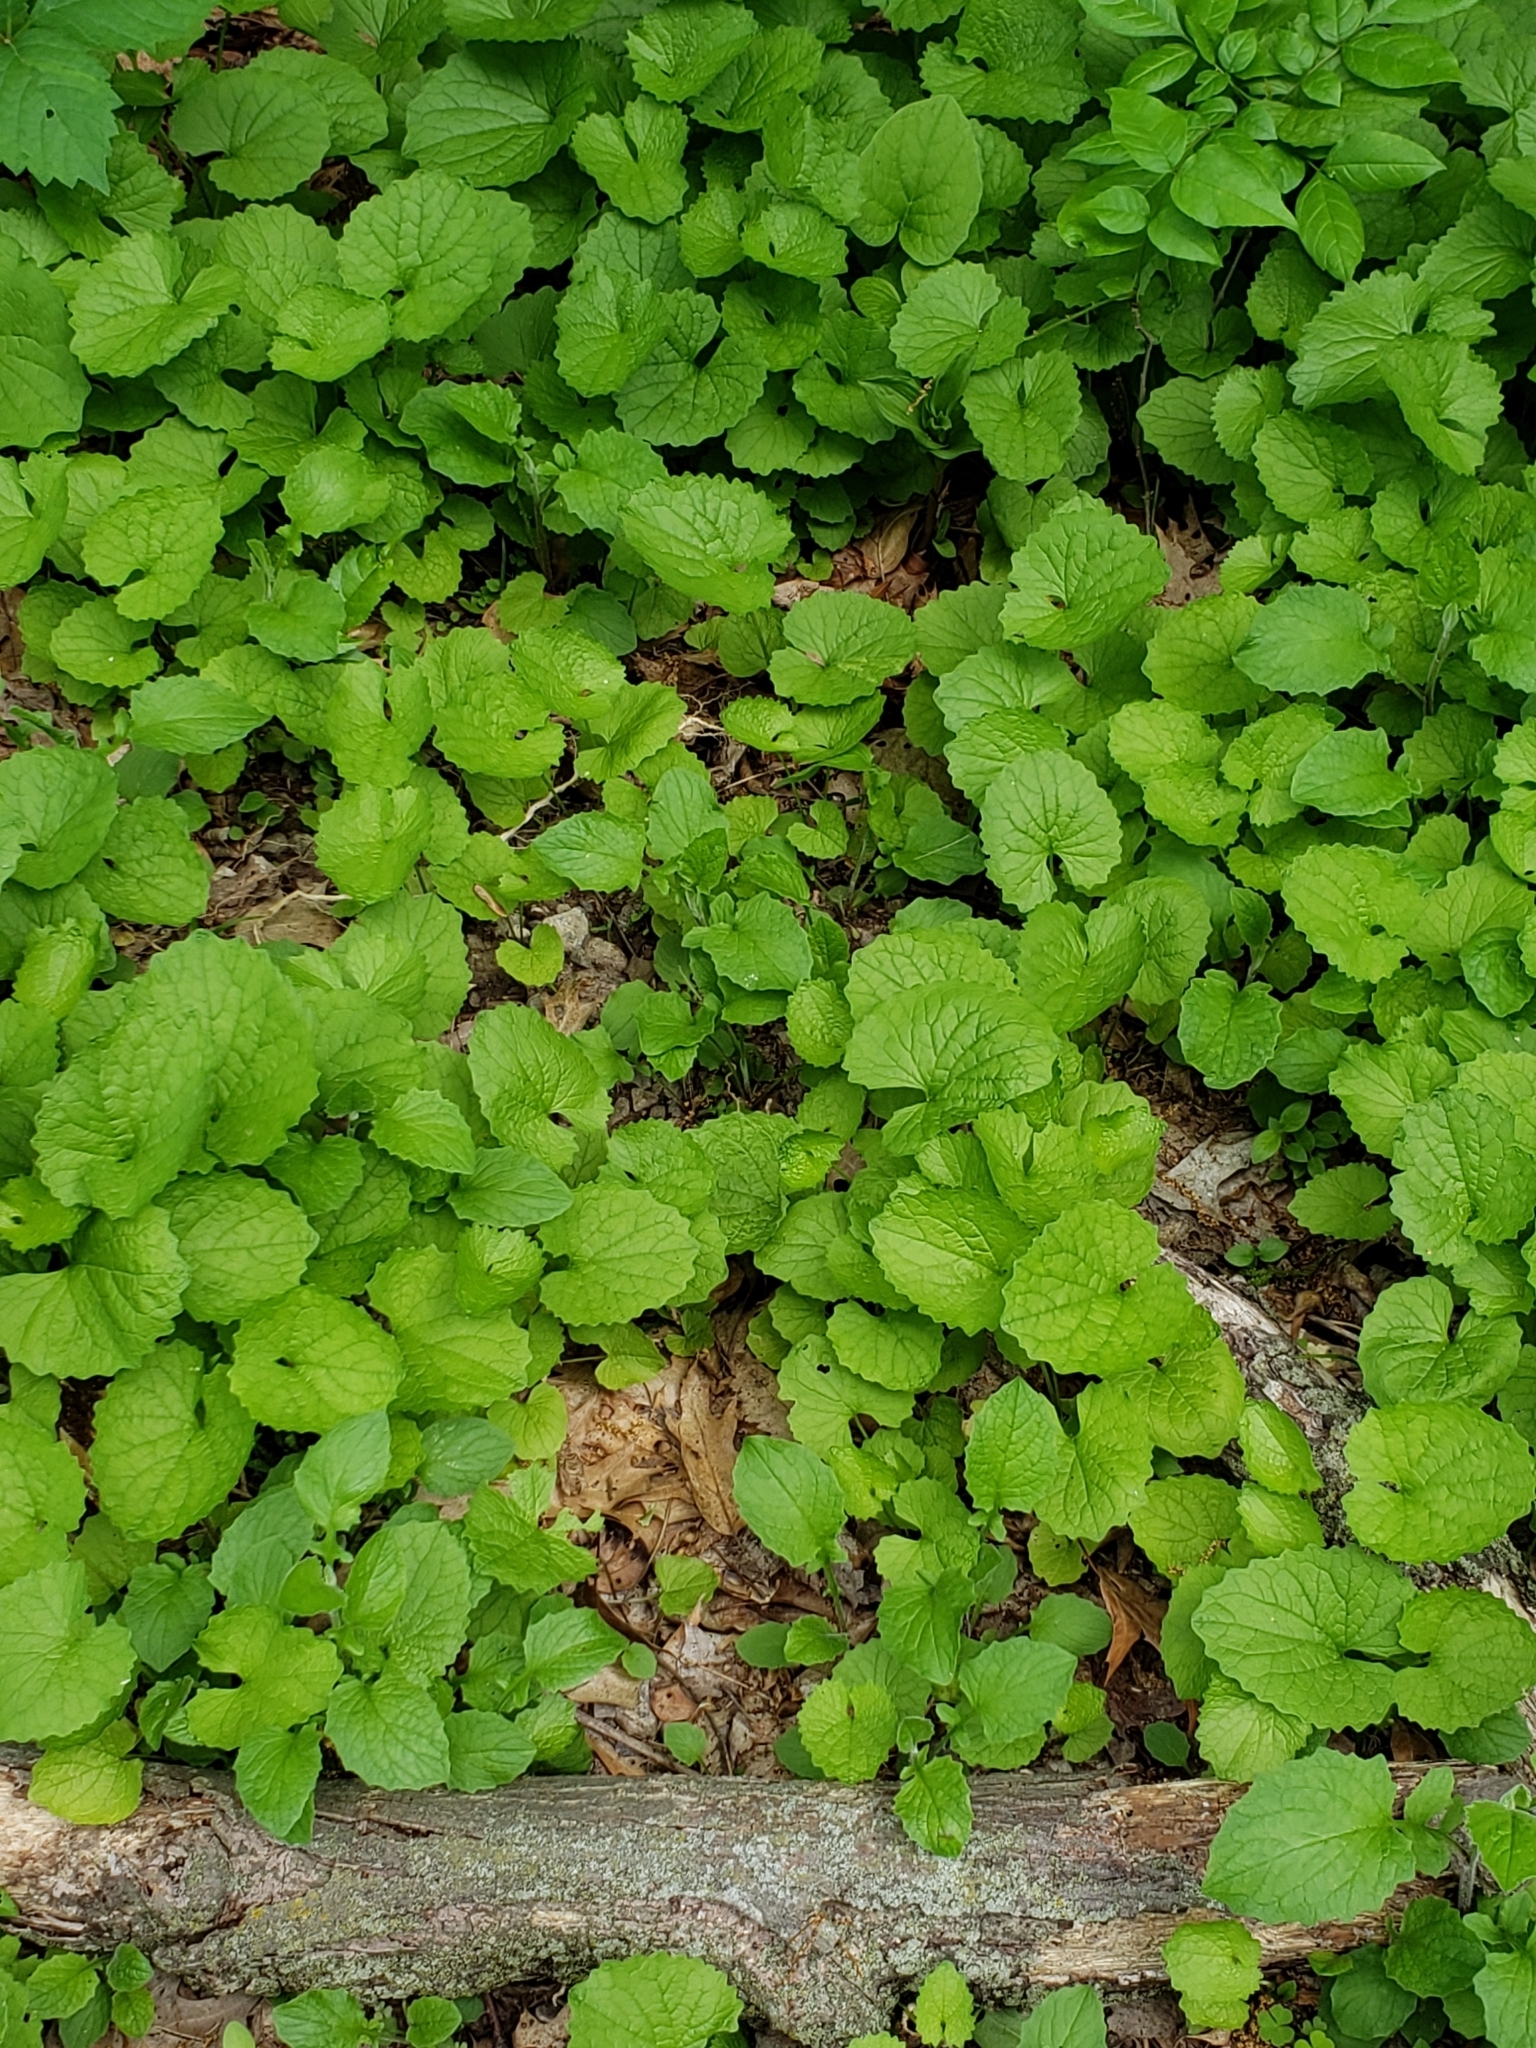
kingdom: Plantae
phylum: Tracheophyta
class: Magnoliopsida
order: Brassicales
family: Brassicaceae
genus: Alliaria
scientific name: Alliaria petiolata
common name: Garlic mustard
